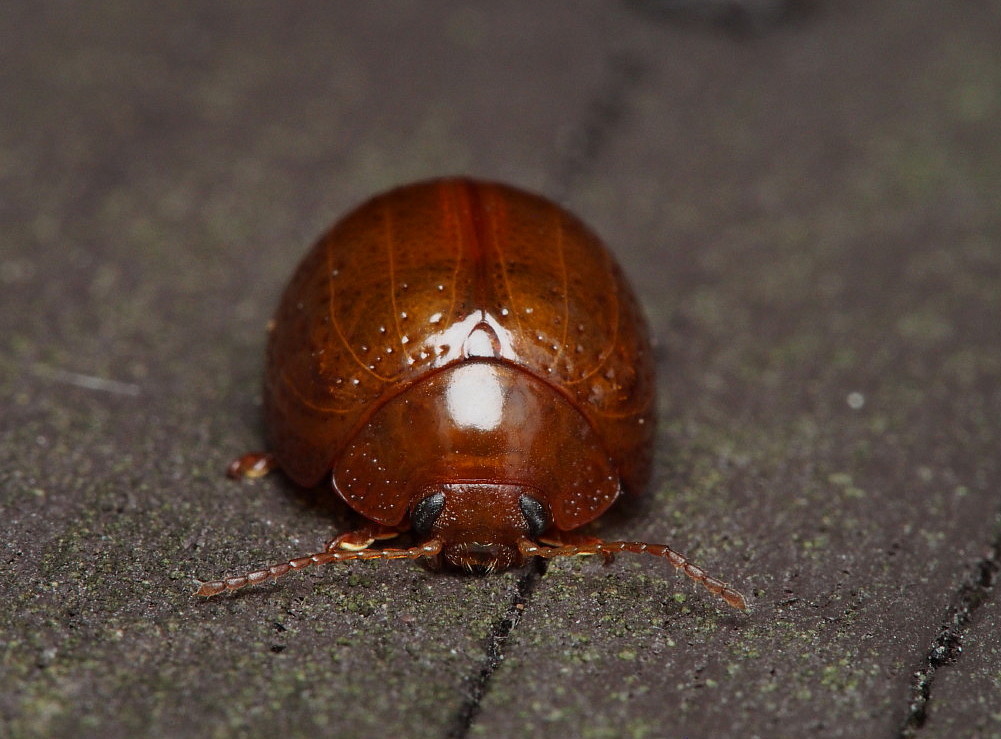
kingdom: Animalia
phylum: Arthropoda
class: Insecta
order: Coleoptera
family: Chrysomelidae
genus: Dicranosterna
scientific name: Dicranosterna
